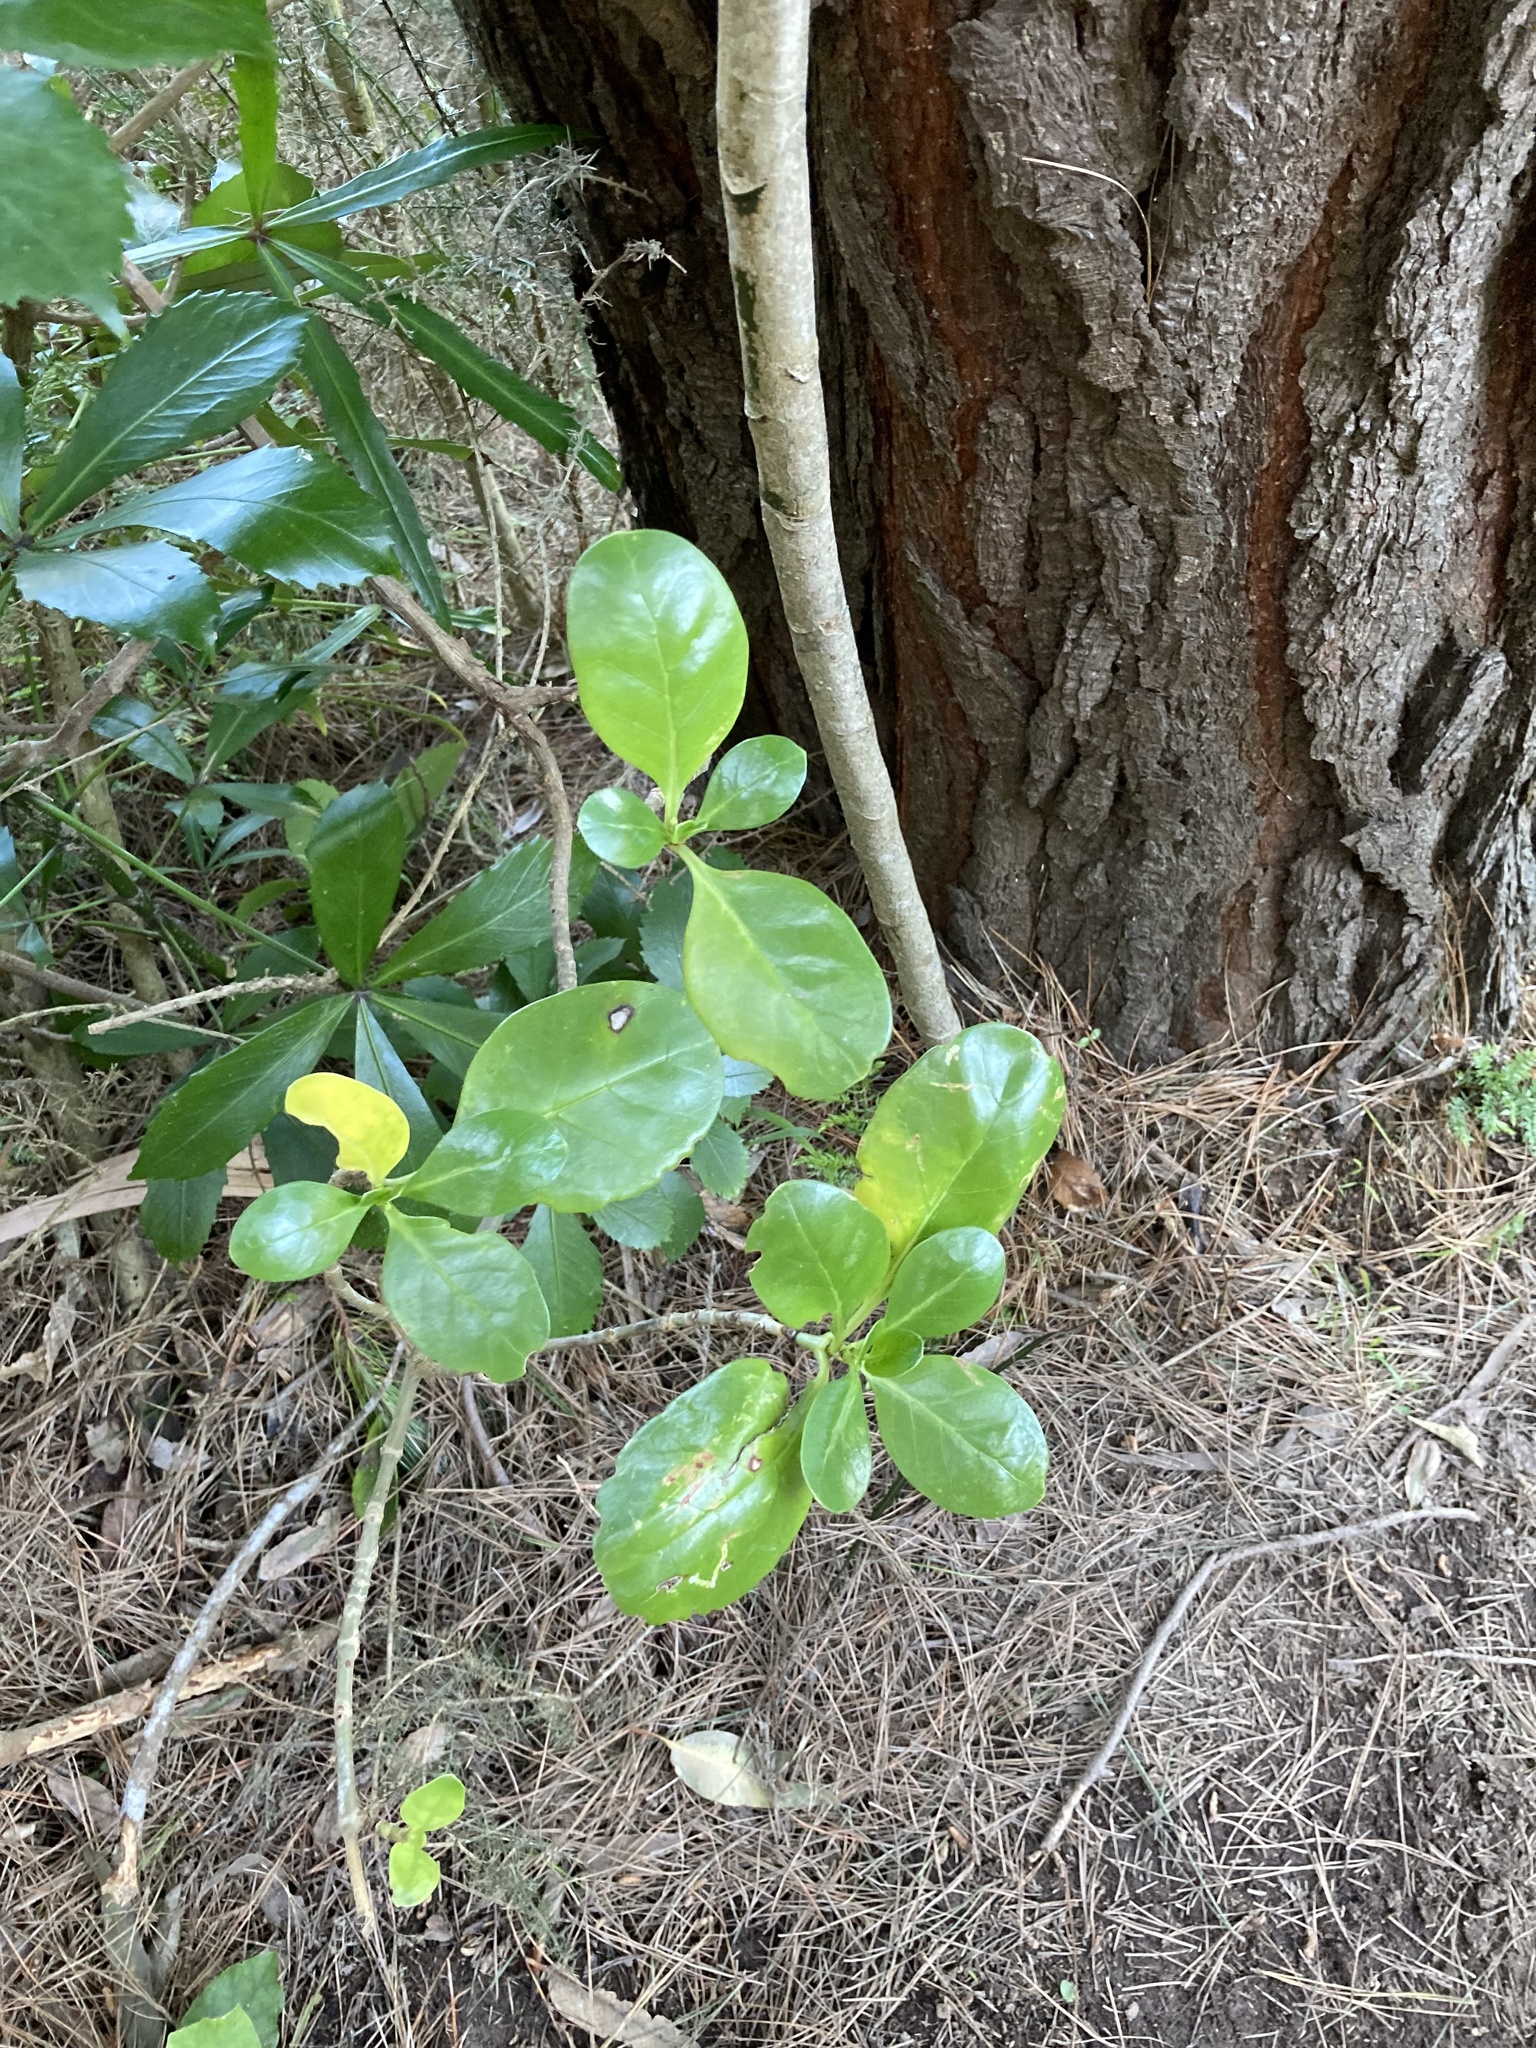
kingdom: Plantae
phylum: Tracheophyta
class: Magnoliopsida
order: Gentianales
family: Rubiaceae
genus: Coprosma
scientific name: Coprosma repens
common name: Tree bedstraw
